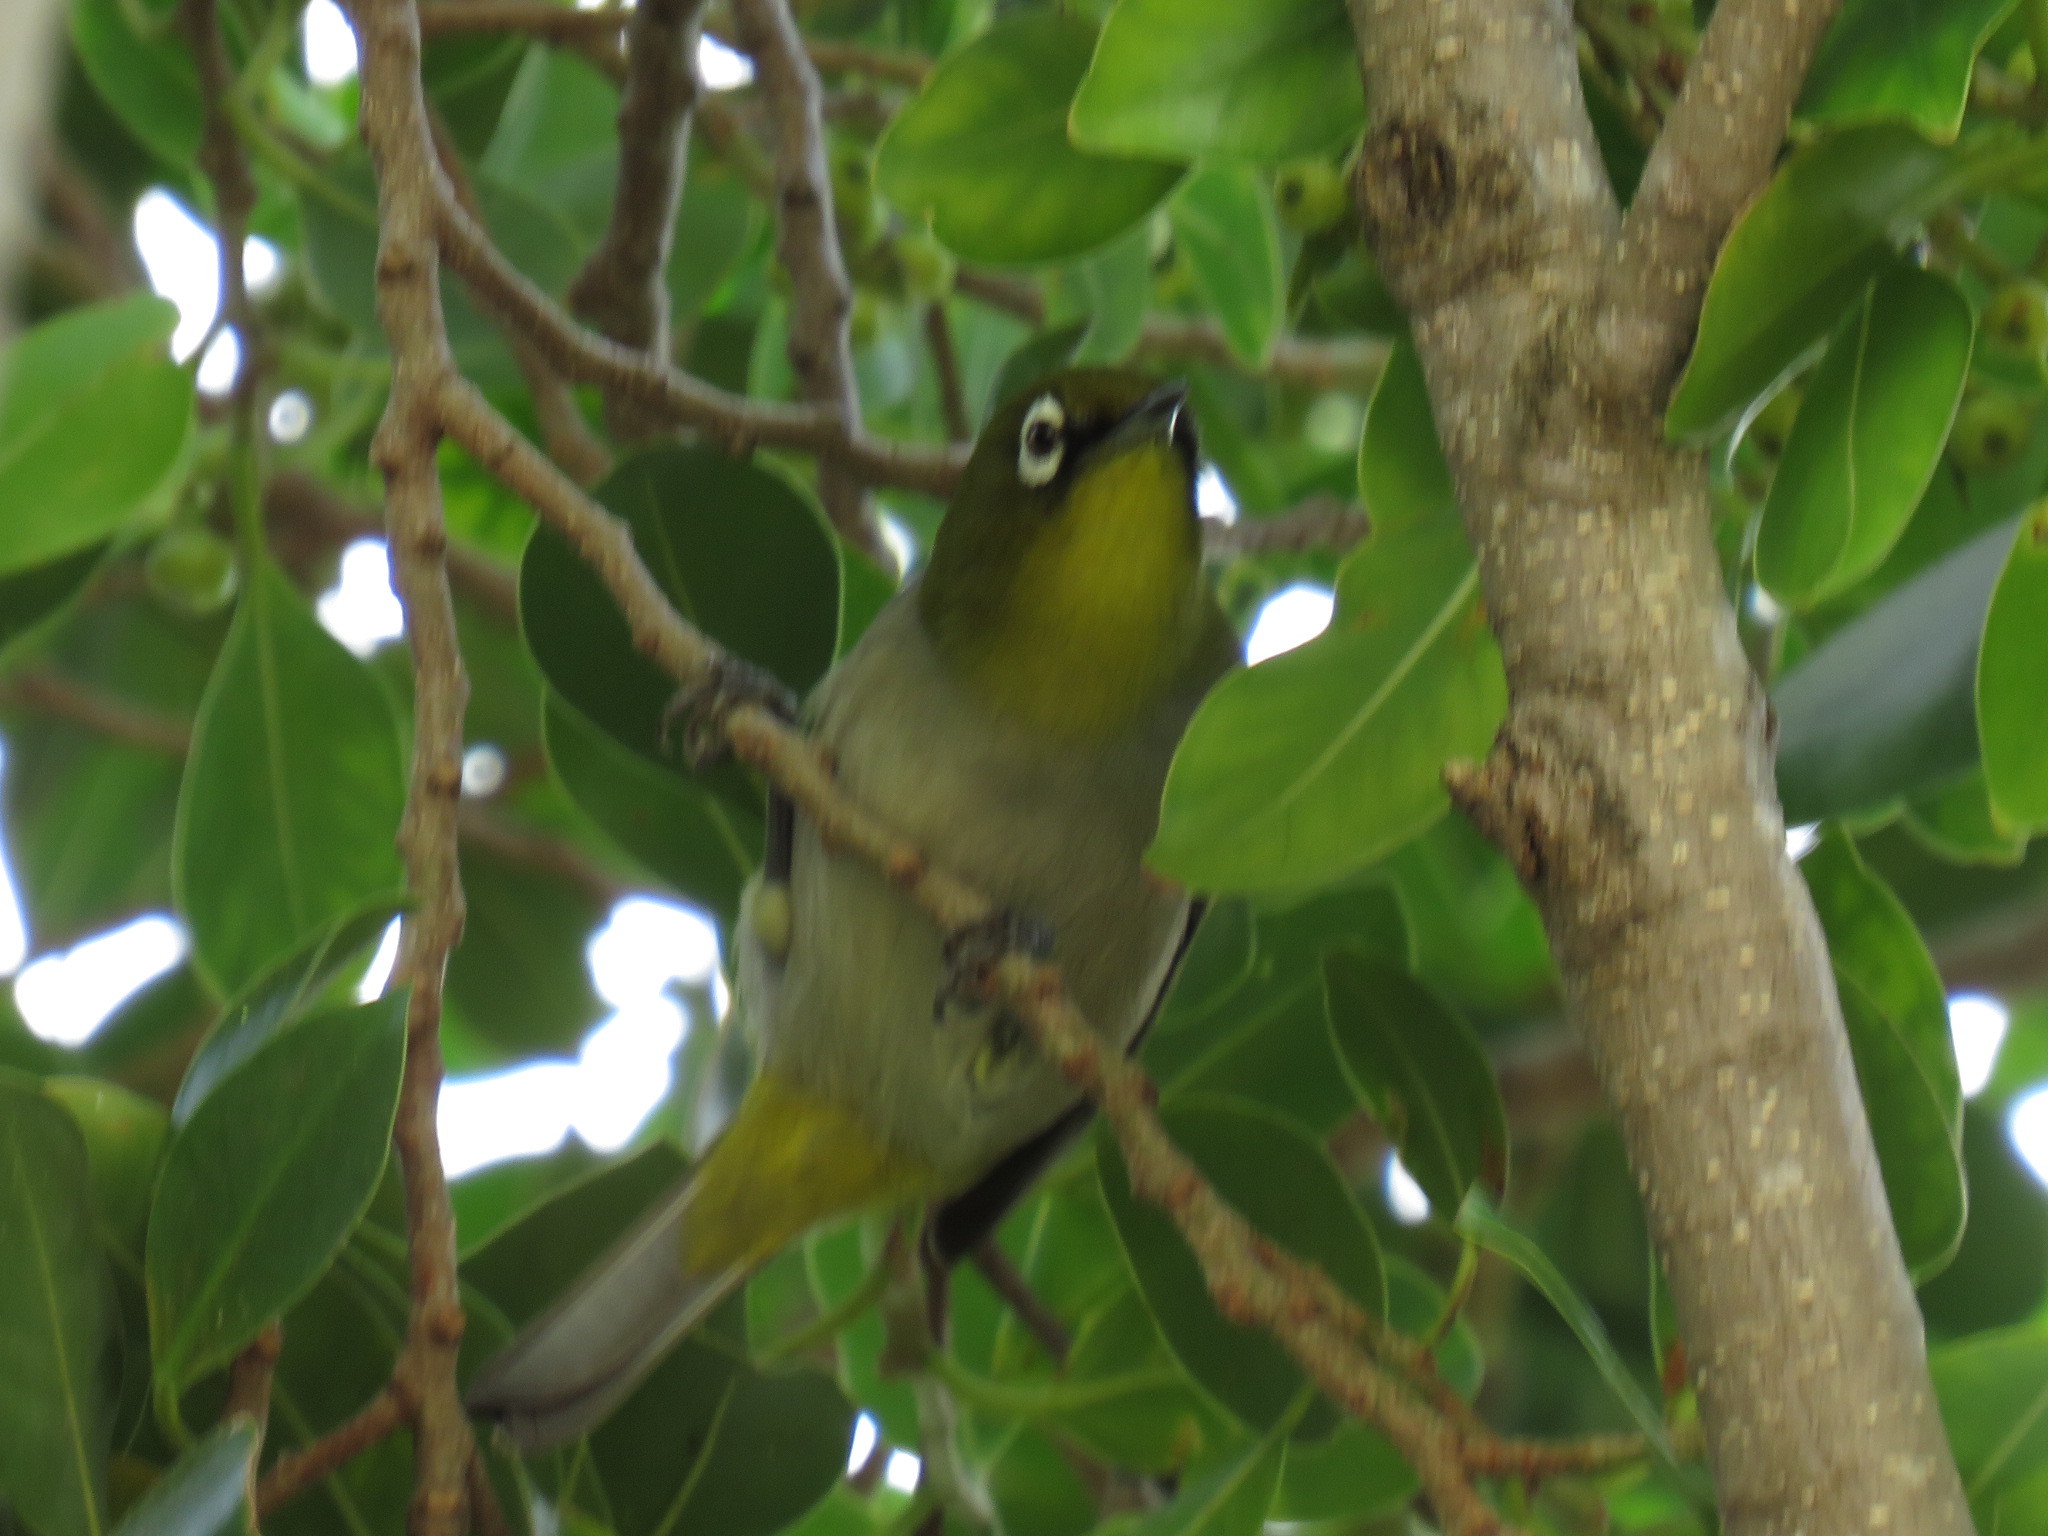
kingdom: Animalia
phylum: Chordata
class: Aves
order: Passeriformes
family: Zosteropidae
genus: Zosterops
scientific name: Zosterops virens
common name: Cape white-eye
